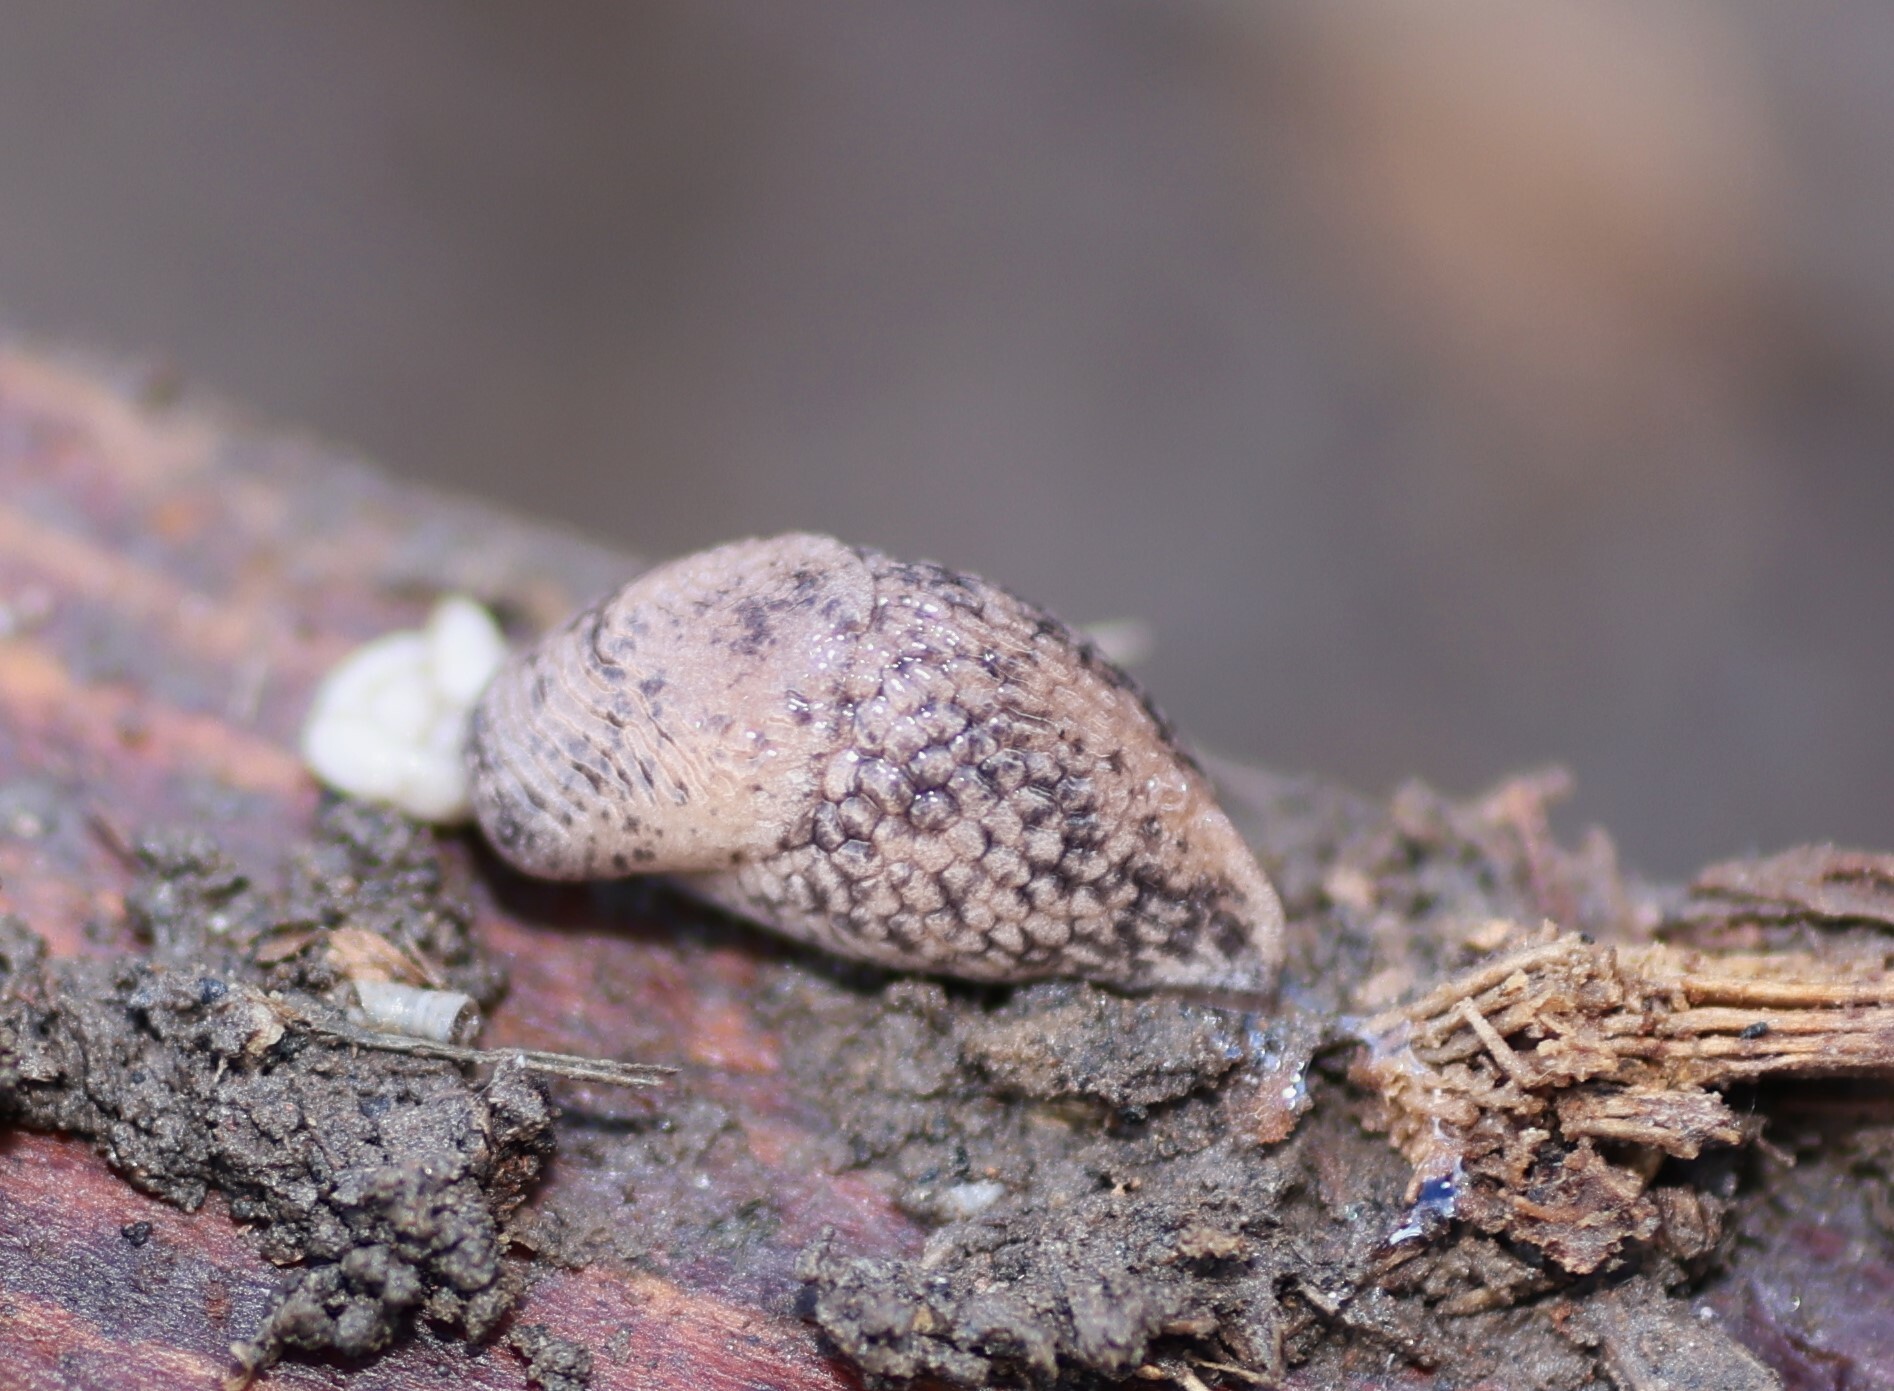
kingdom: Animalia
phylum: Mollusca
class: Gastropoda
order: Stylommatophora
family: Agriolimacidae
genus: Deroceras
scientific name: Deroceras reticulatum
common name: Gray field slug
